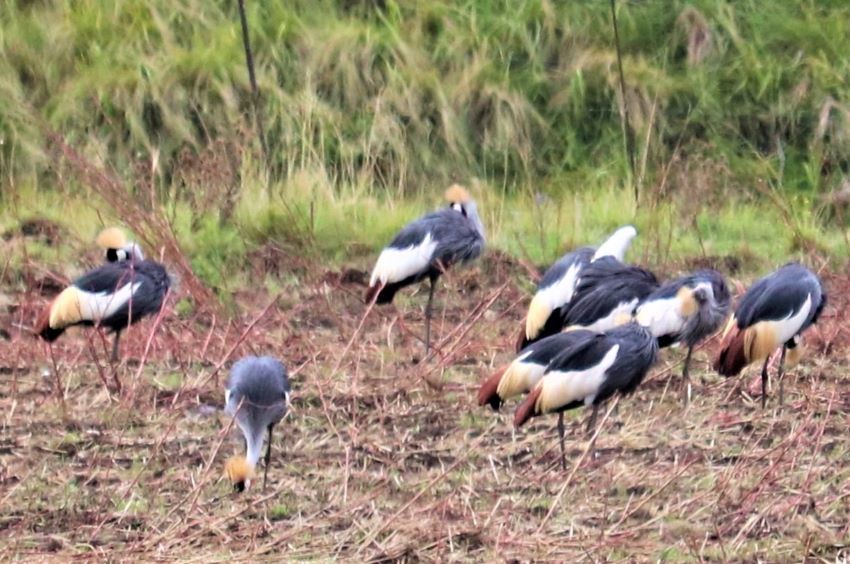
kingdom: Animalia
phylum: Chordata
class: Aves
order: Gruiformes
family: Gruidae
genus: Balearica
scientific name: Balearica regulorum
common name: Grey crowned crane
